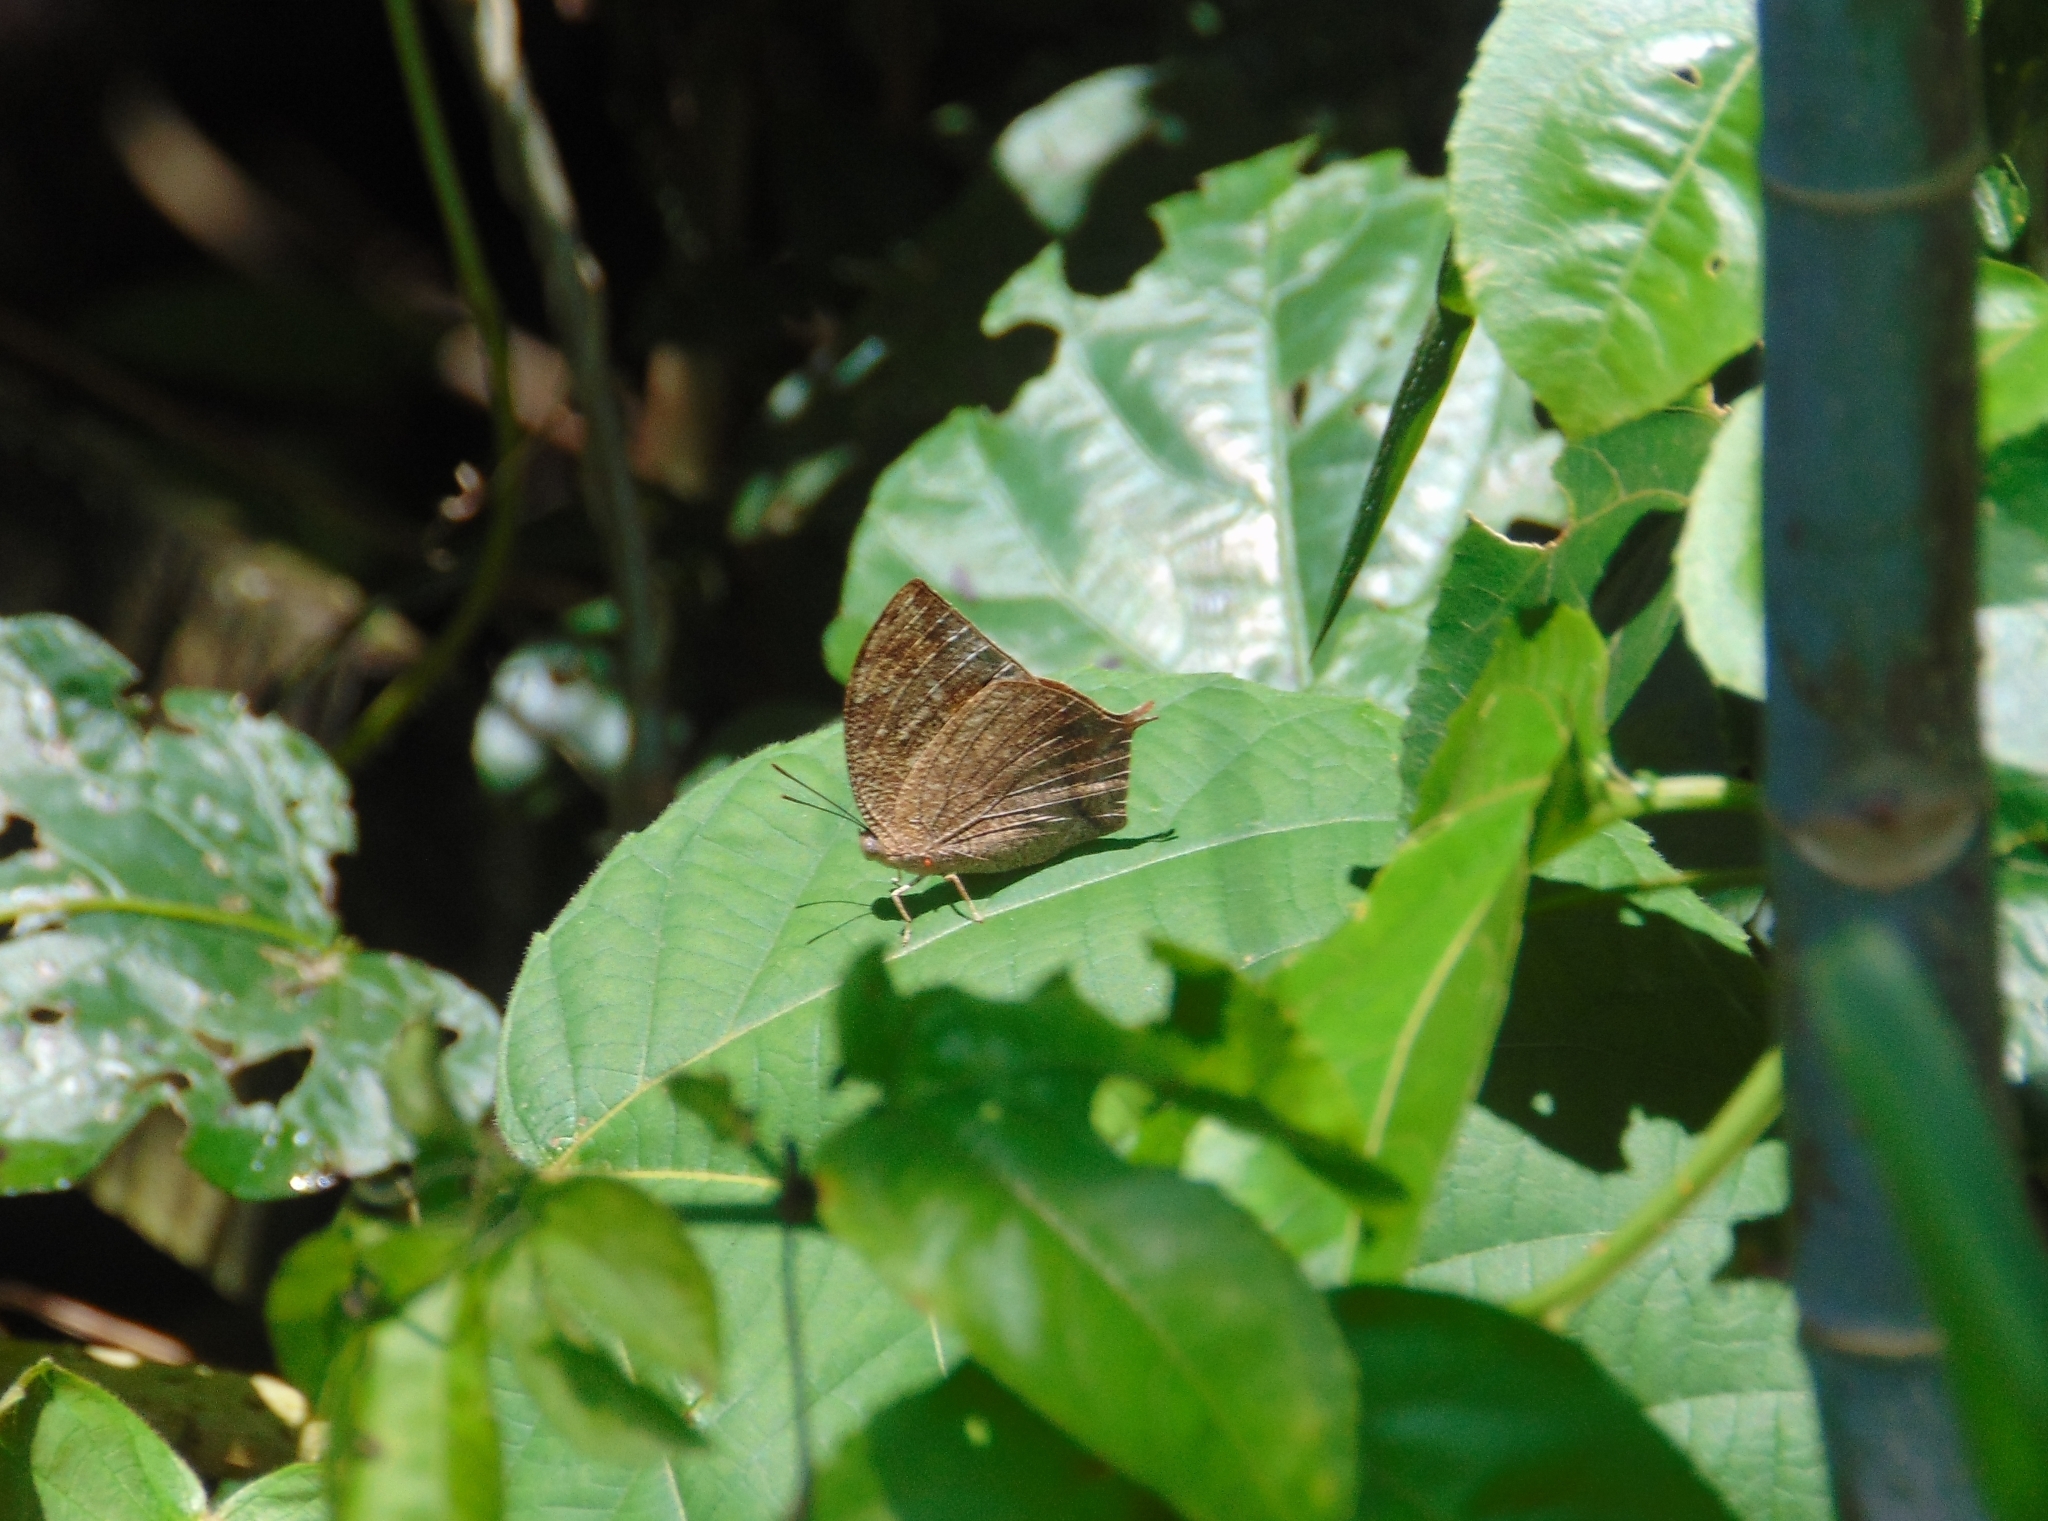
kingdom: Animalia
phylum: Arthropoda
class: Insecta
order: Lepidoptera
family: Nymphalidae
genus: Anaea
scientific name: Anaea ryphea
